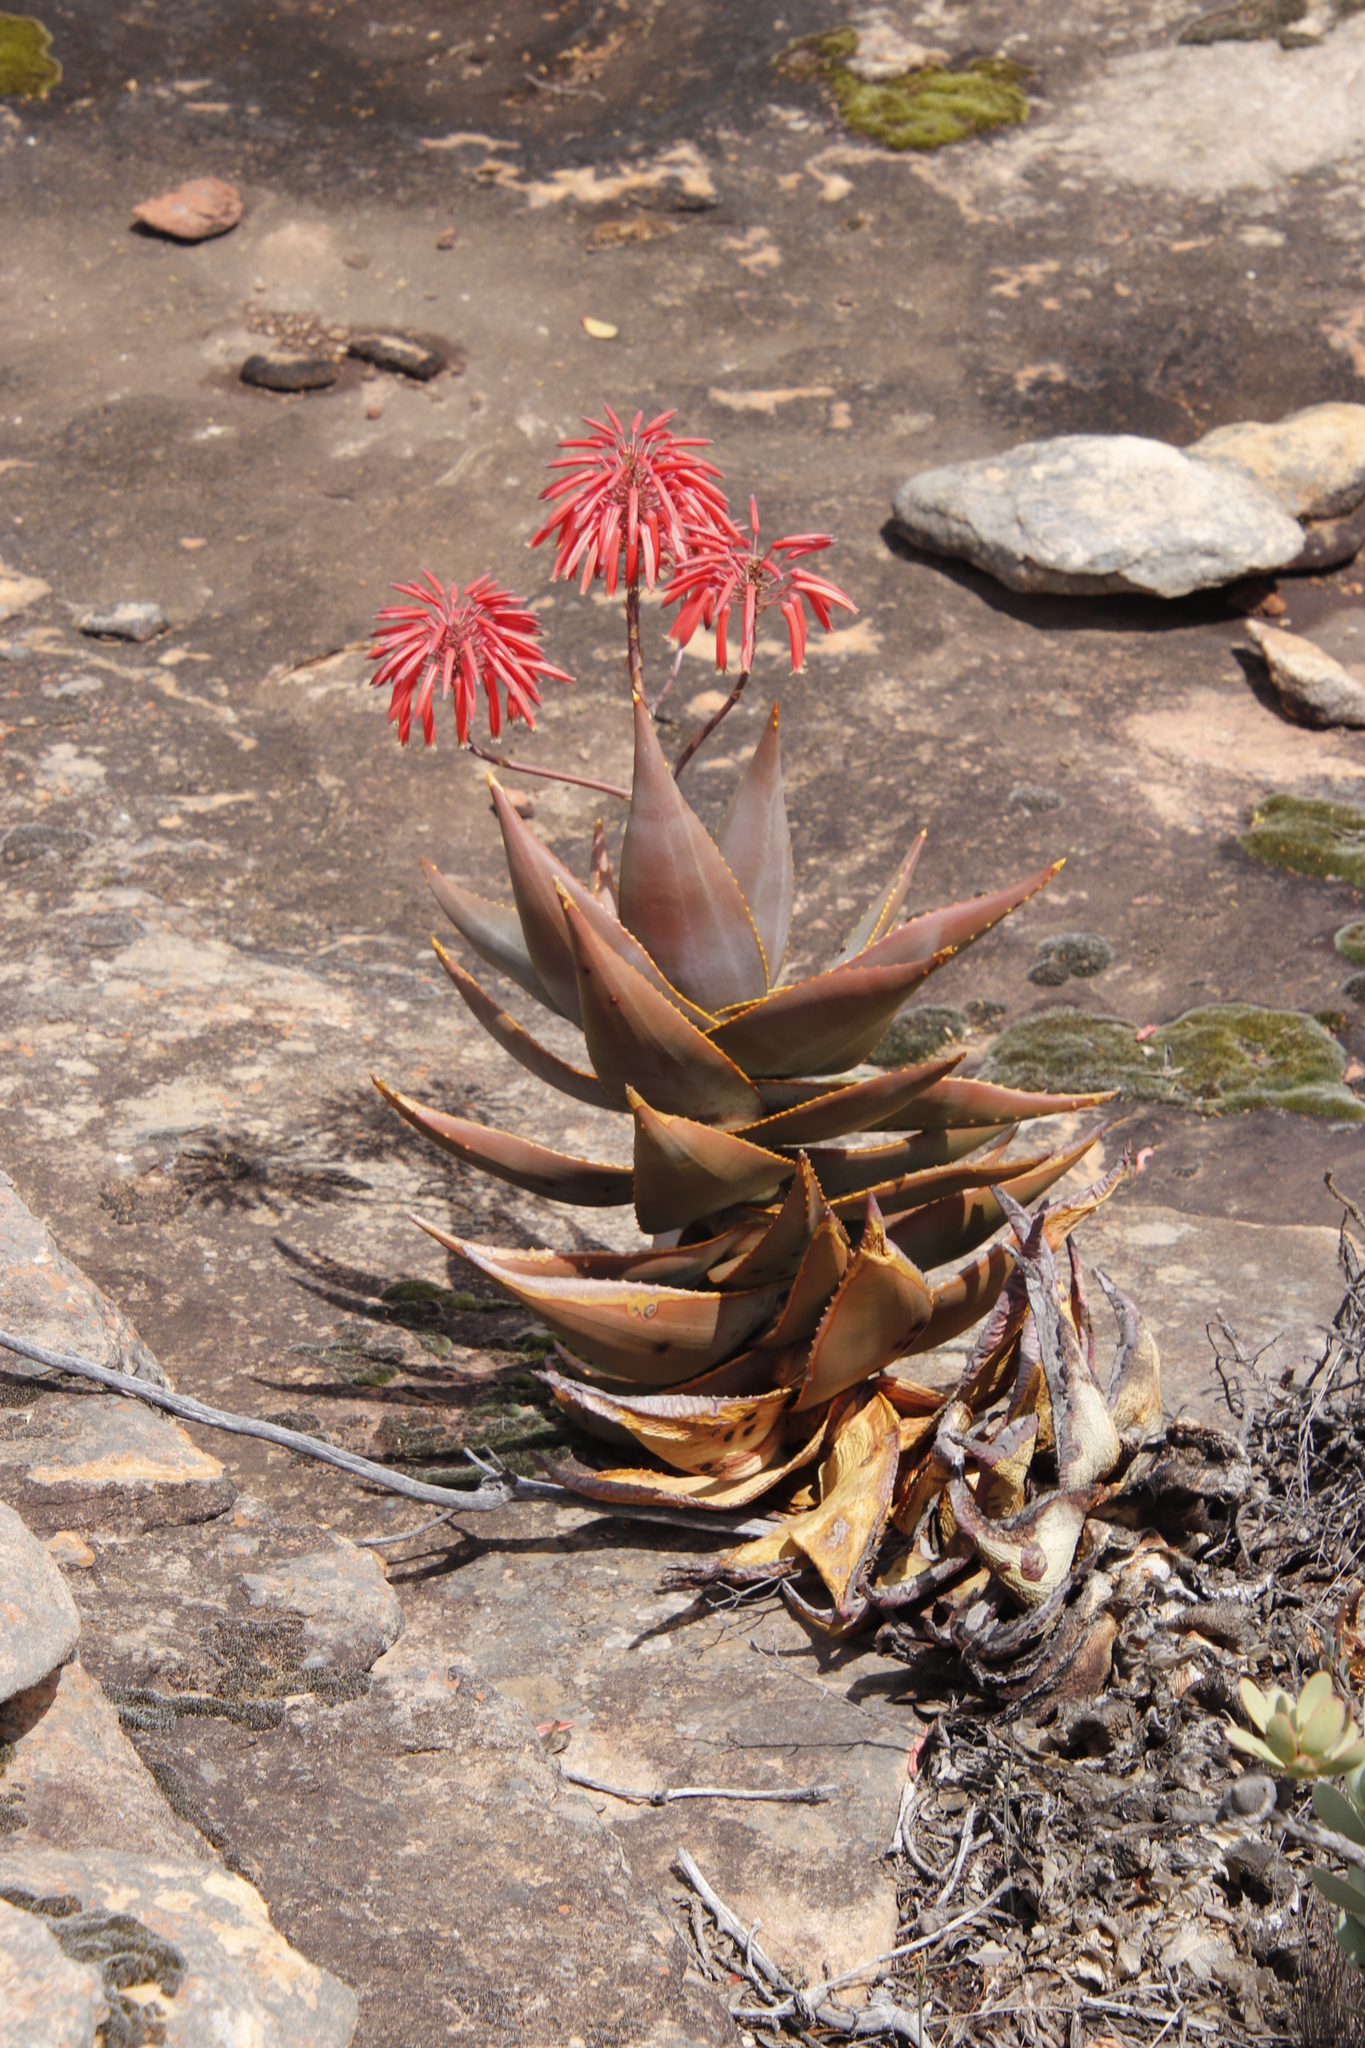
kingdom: Plantae
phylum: Tracheophyta
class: Liliopsida
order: Asparagales
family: Asphodelaceae
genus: Aloe
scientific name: Aloe perfoliata
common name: Mitra aloe
